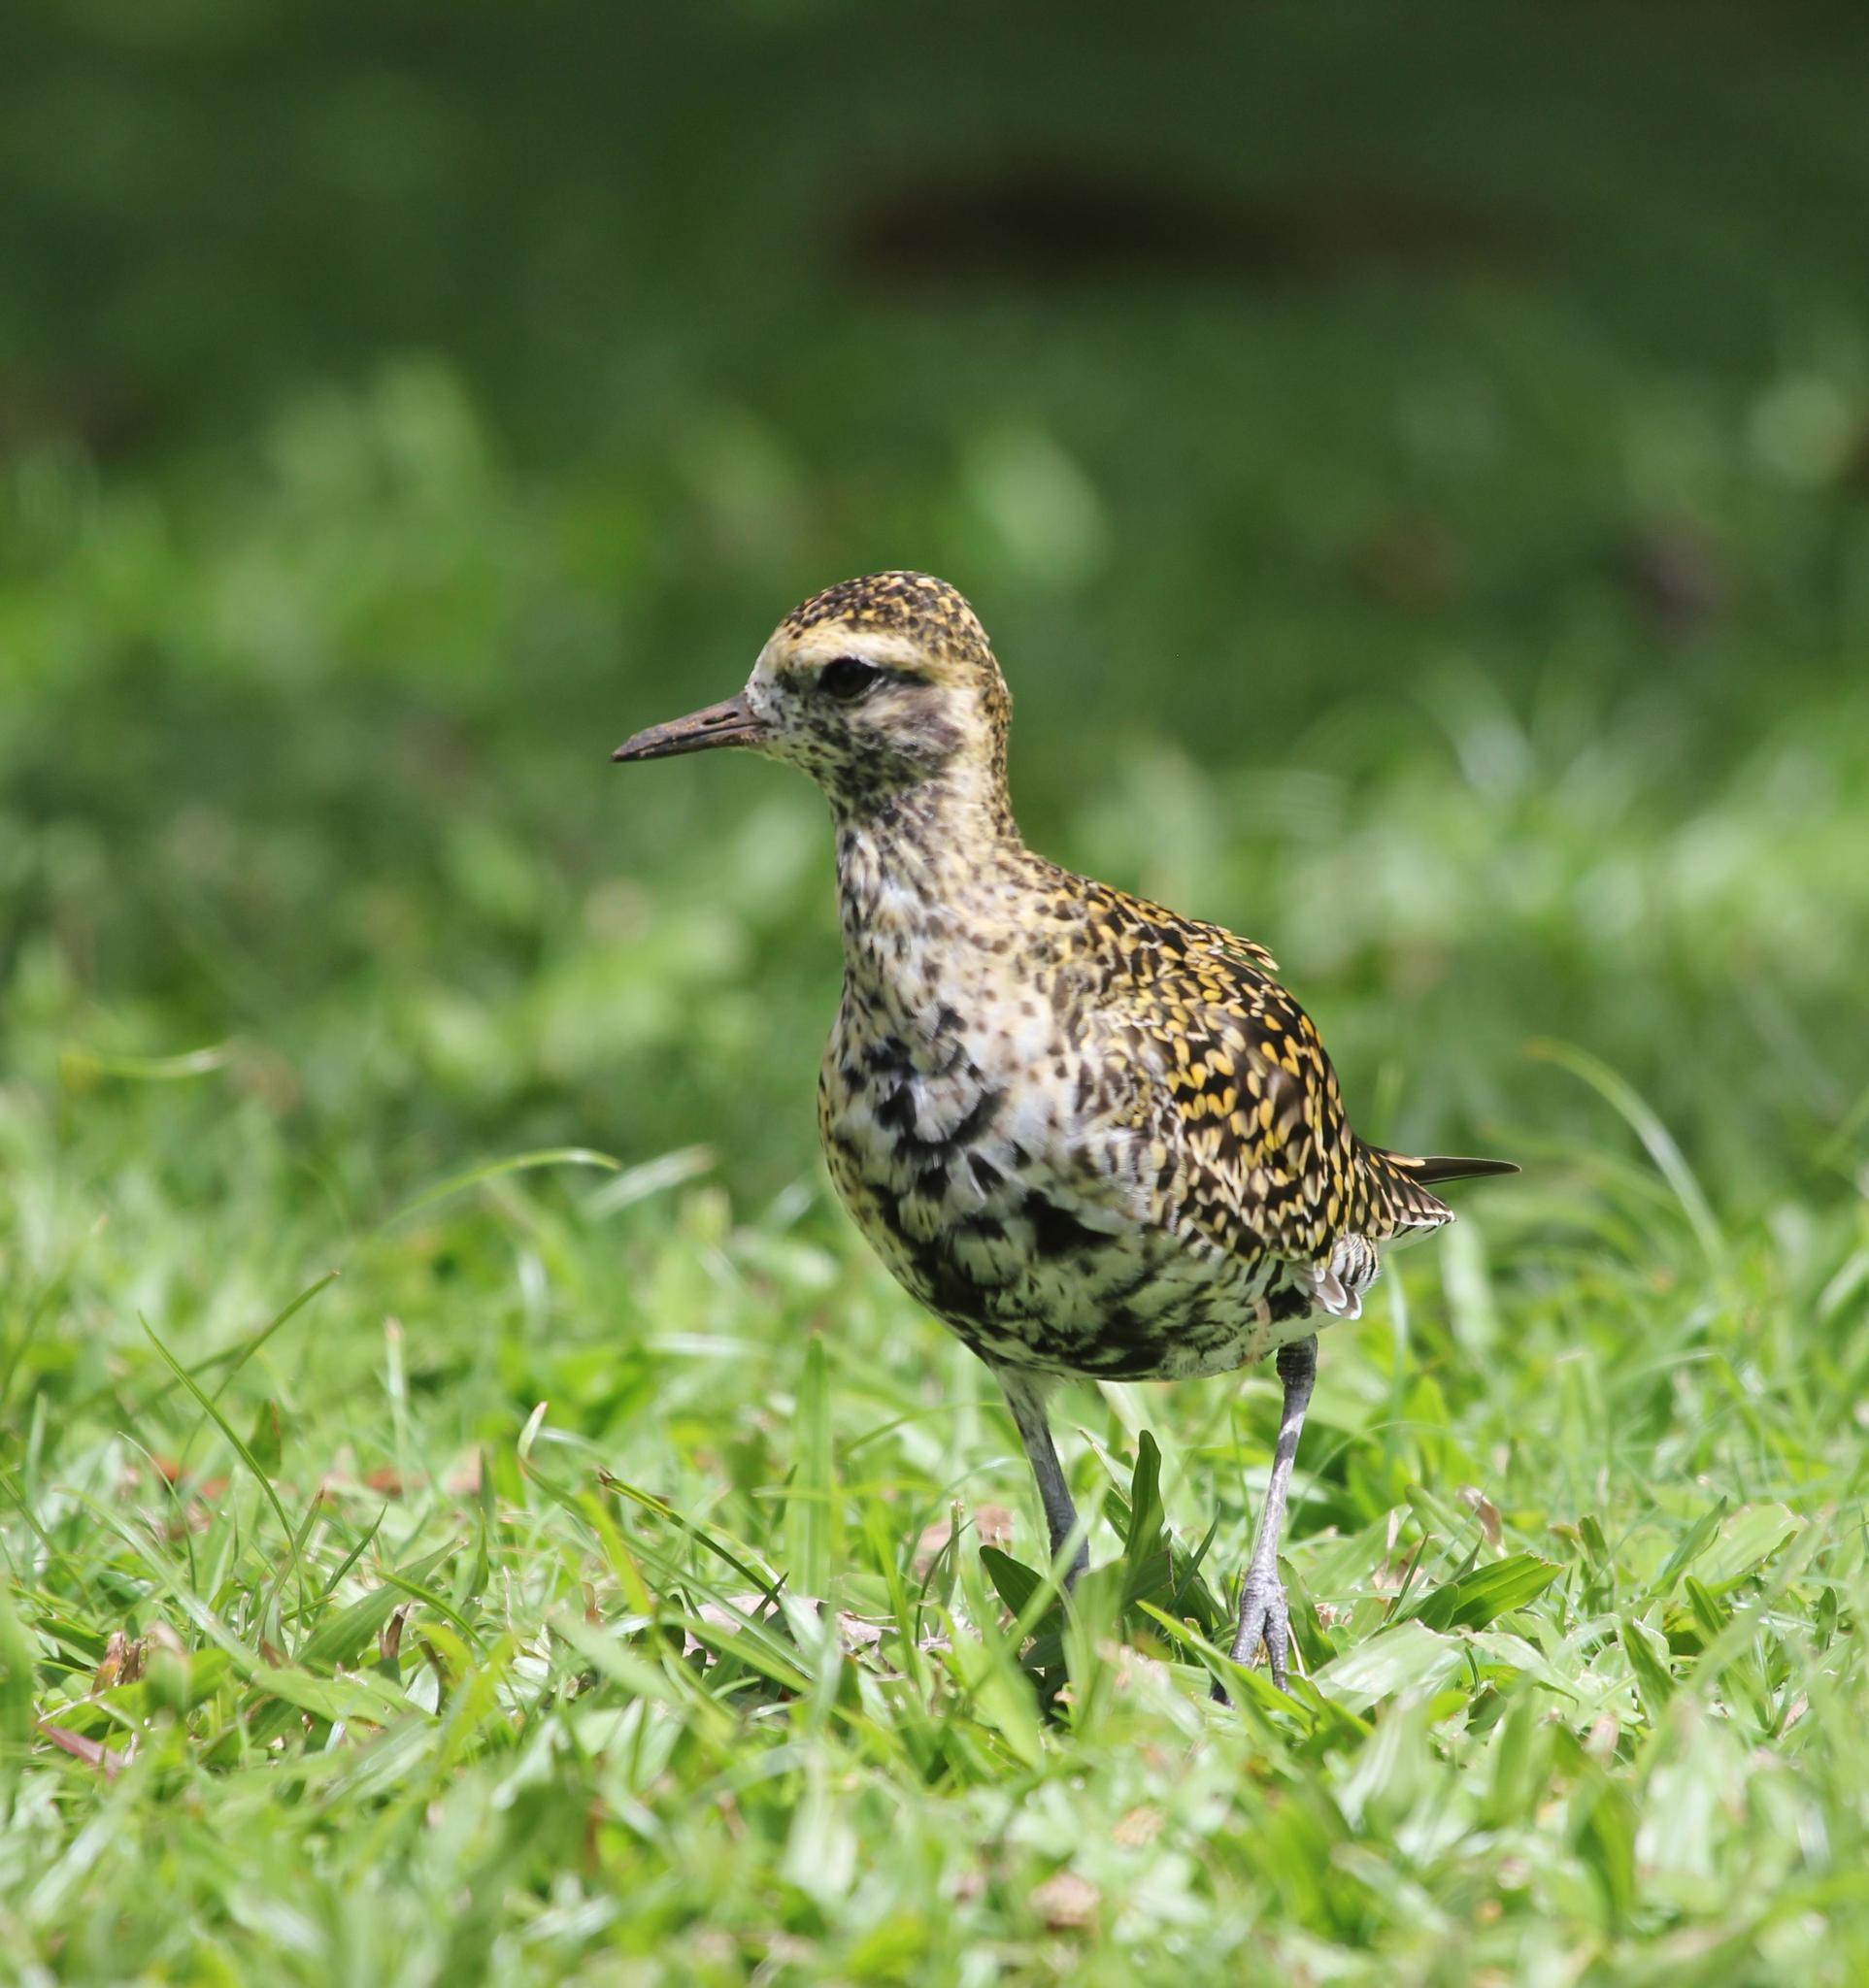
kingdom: Animalia
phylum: Chordata
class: Aves
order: Charadriiformes
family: Charadriidae
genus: Pluvialis
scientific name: Pluvialis fulva
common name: Pacific golden plover
